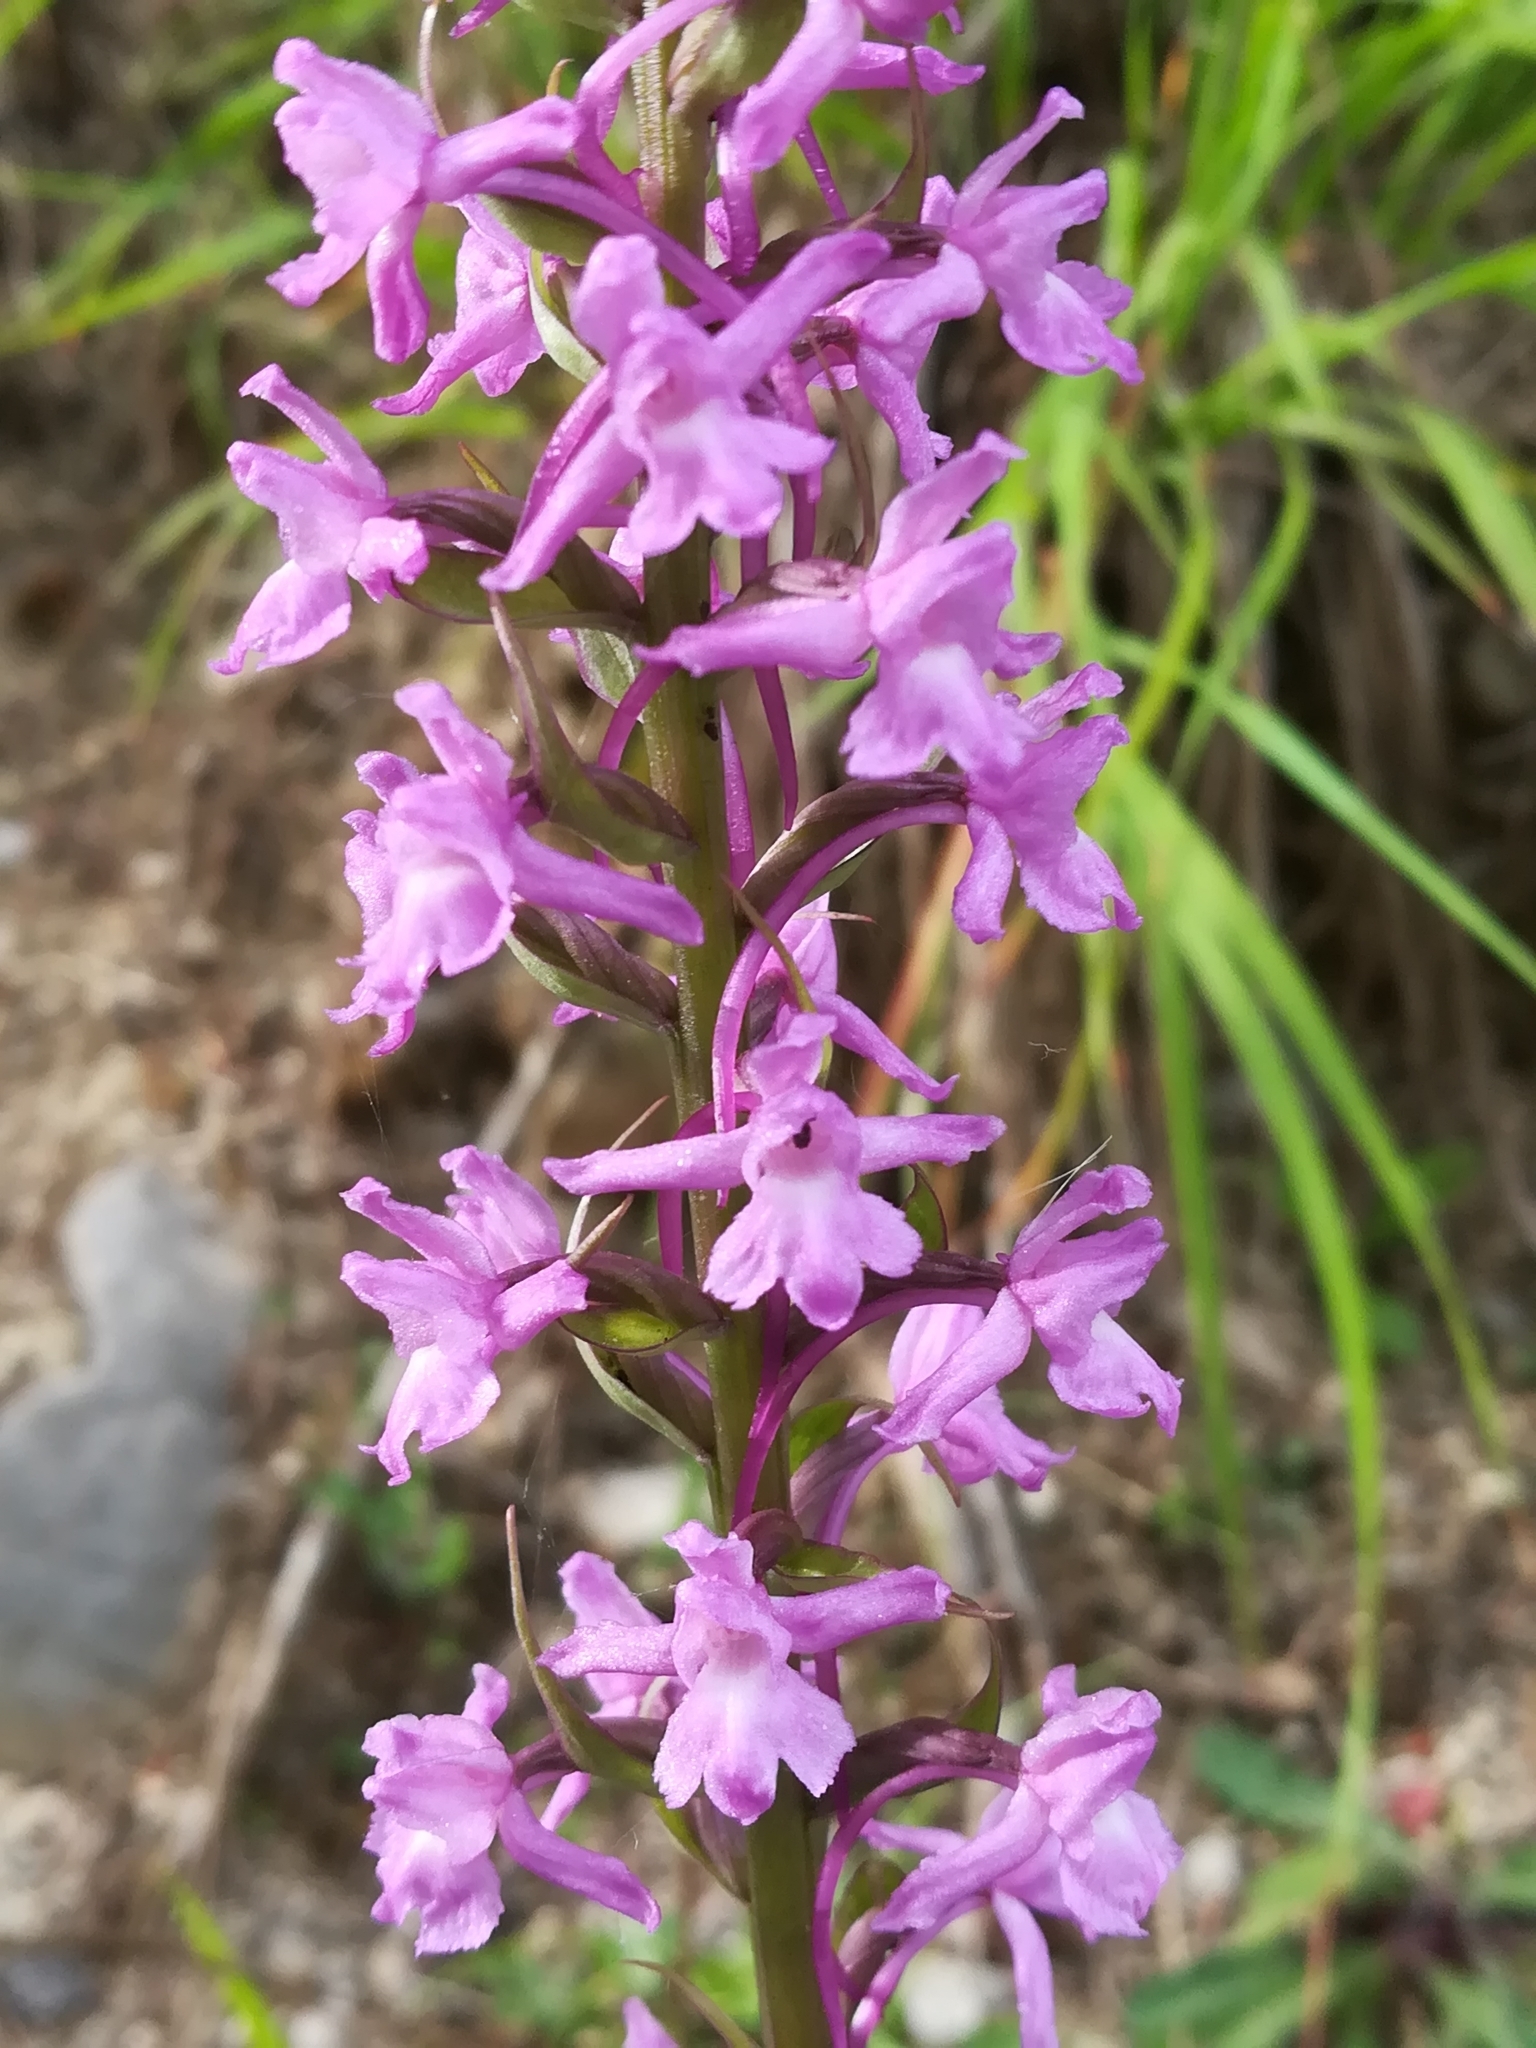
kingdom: Plantae
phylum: Tracheophyta
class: Liliopsida
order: Asparagales
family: Orchidaceae
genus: Gymnadenia
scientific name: Gymnadenia conopsea
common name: Fragrant orchid
